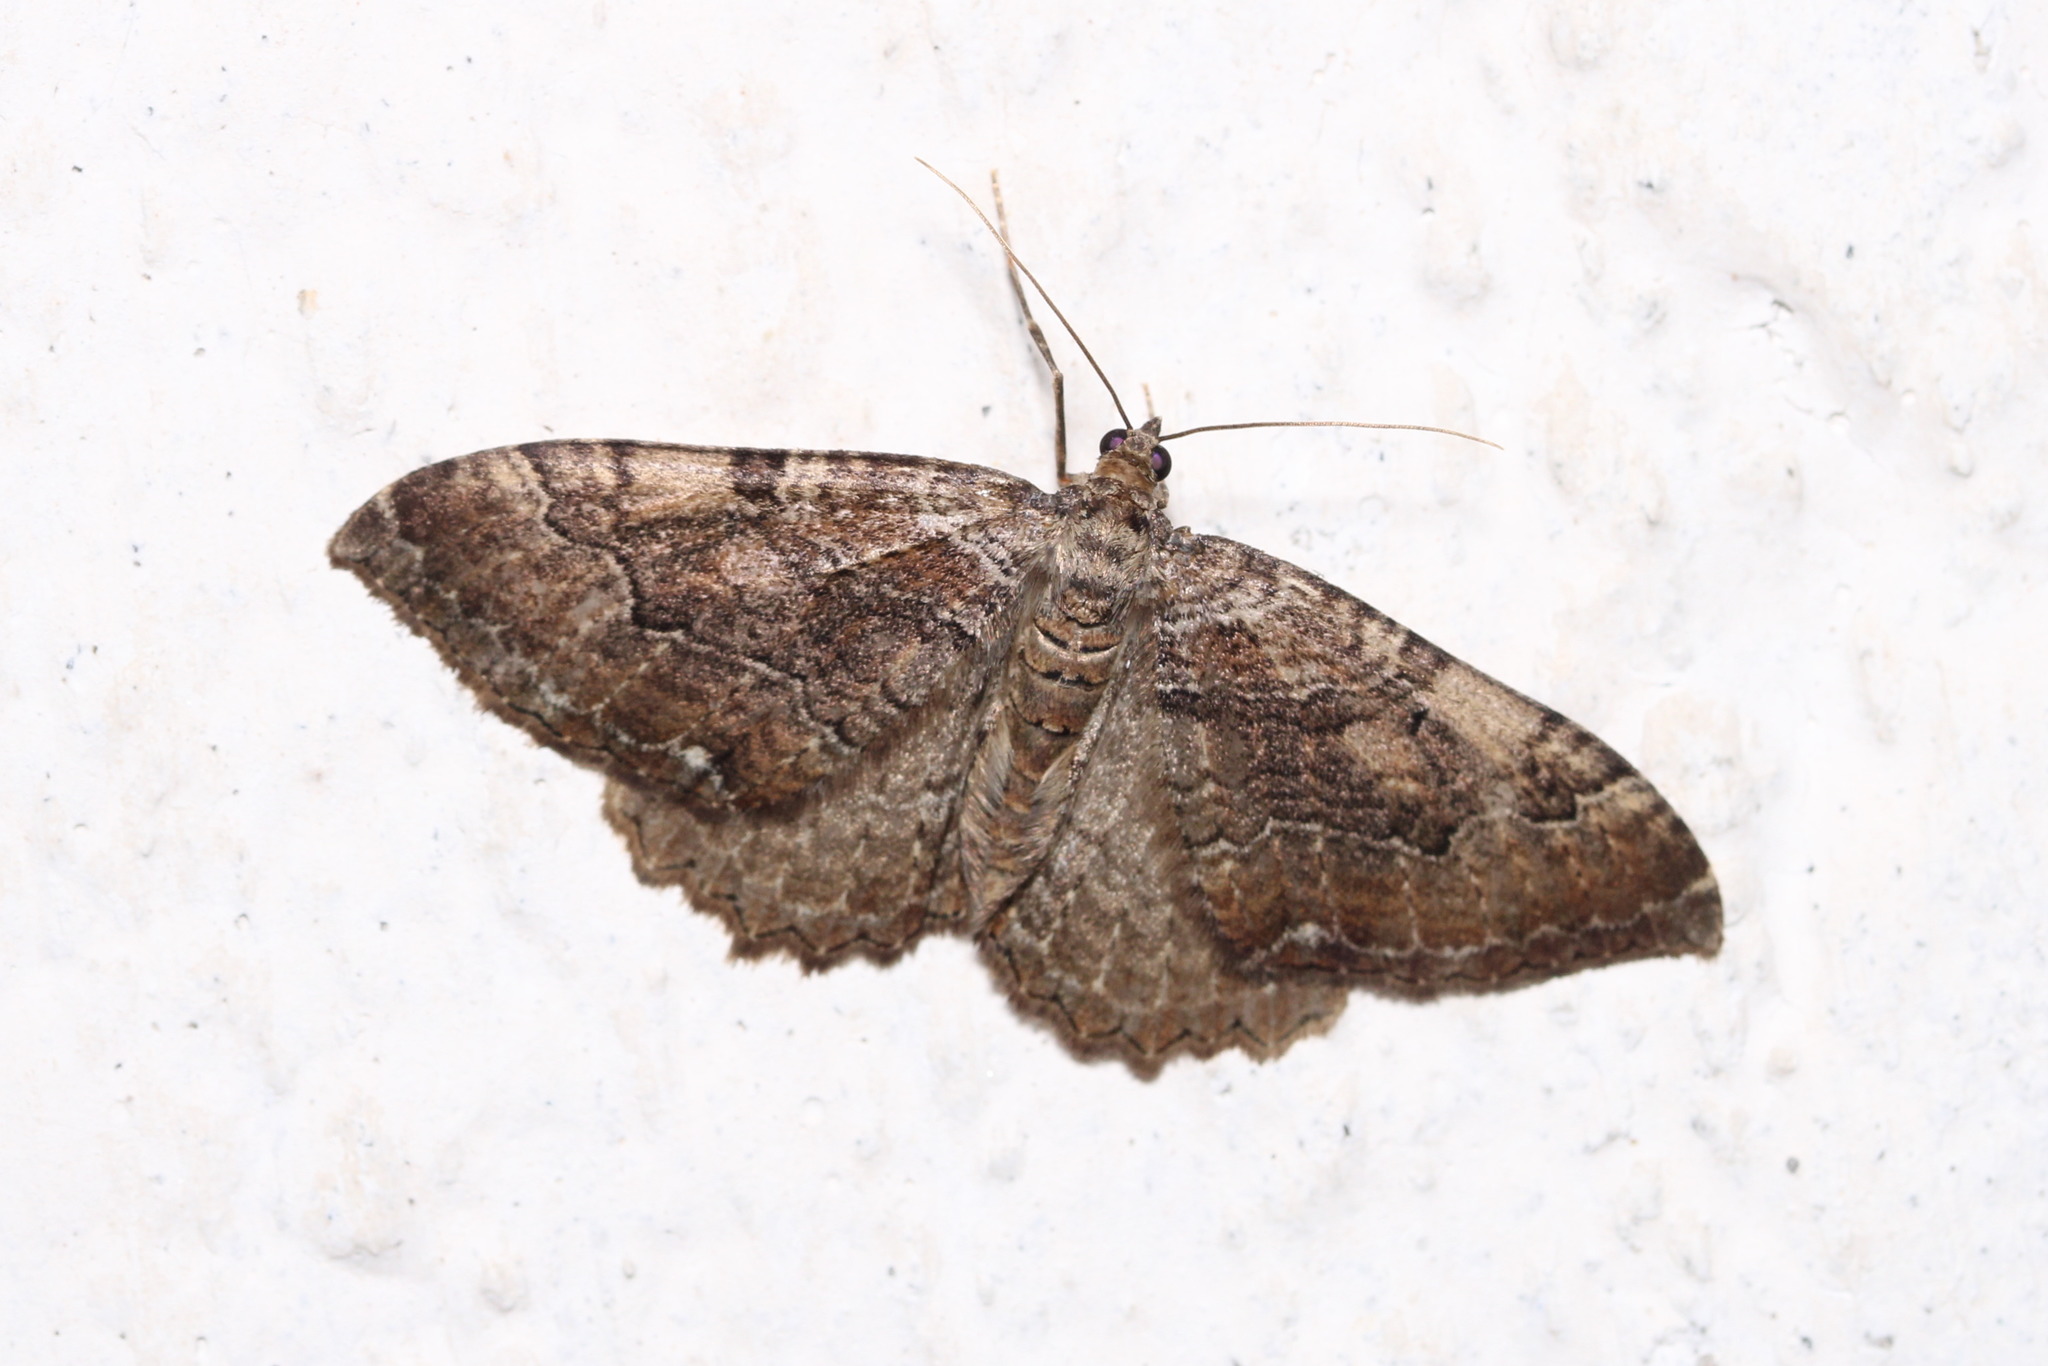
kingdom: Animalia
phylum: Arthropoda
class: Insecta
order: Lepidoptera
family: Geometridae
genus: Rheumaptera
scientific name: Rheumaptera Hydria cervinalis
